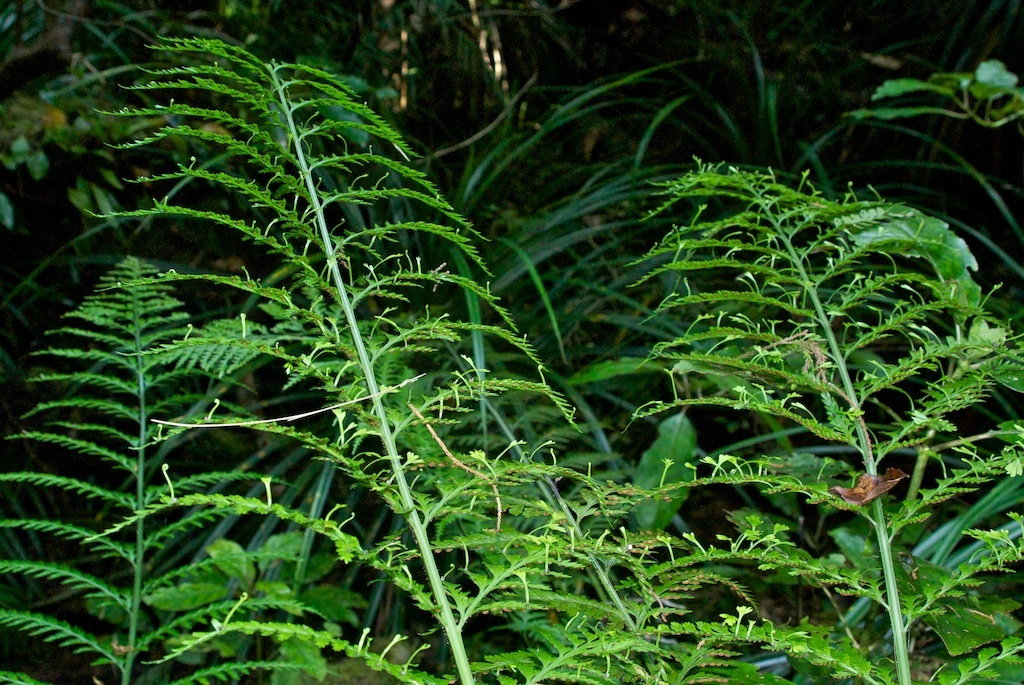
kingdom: Plantae
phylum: Tracheophyta
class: Polypodiopsida
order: Polypodiales
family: Aspleniaceae
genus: Asplenium
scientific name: Asplenium bulbiferum
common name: Mother fern
